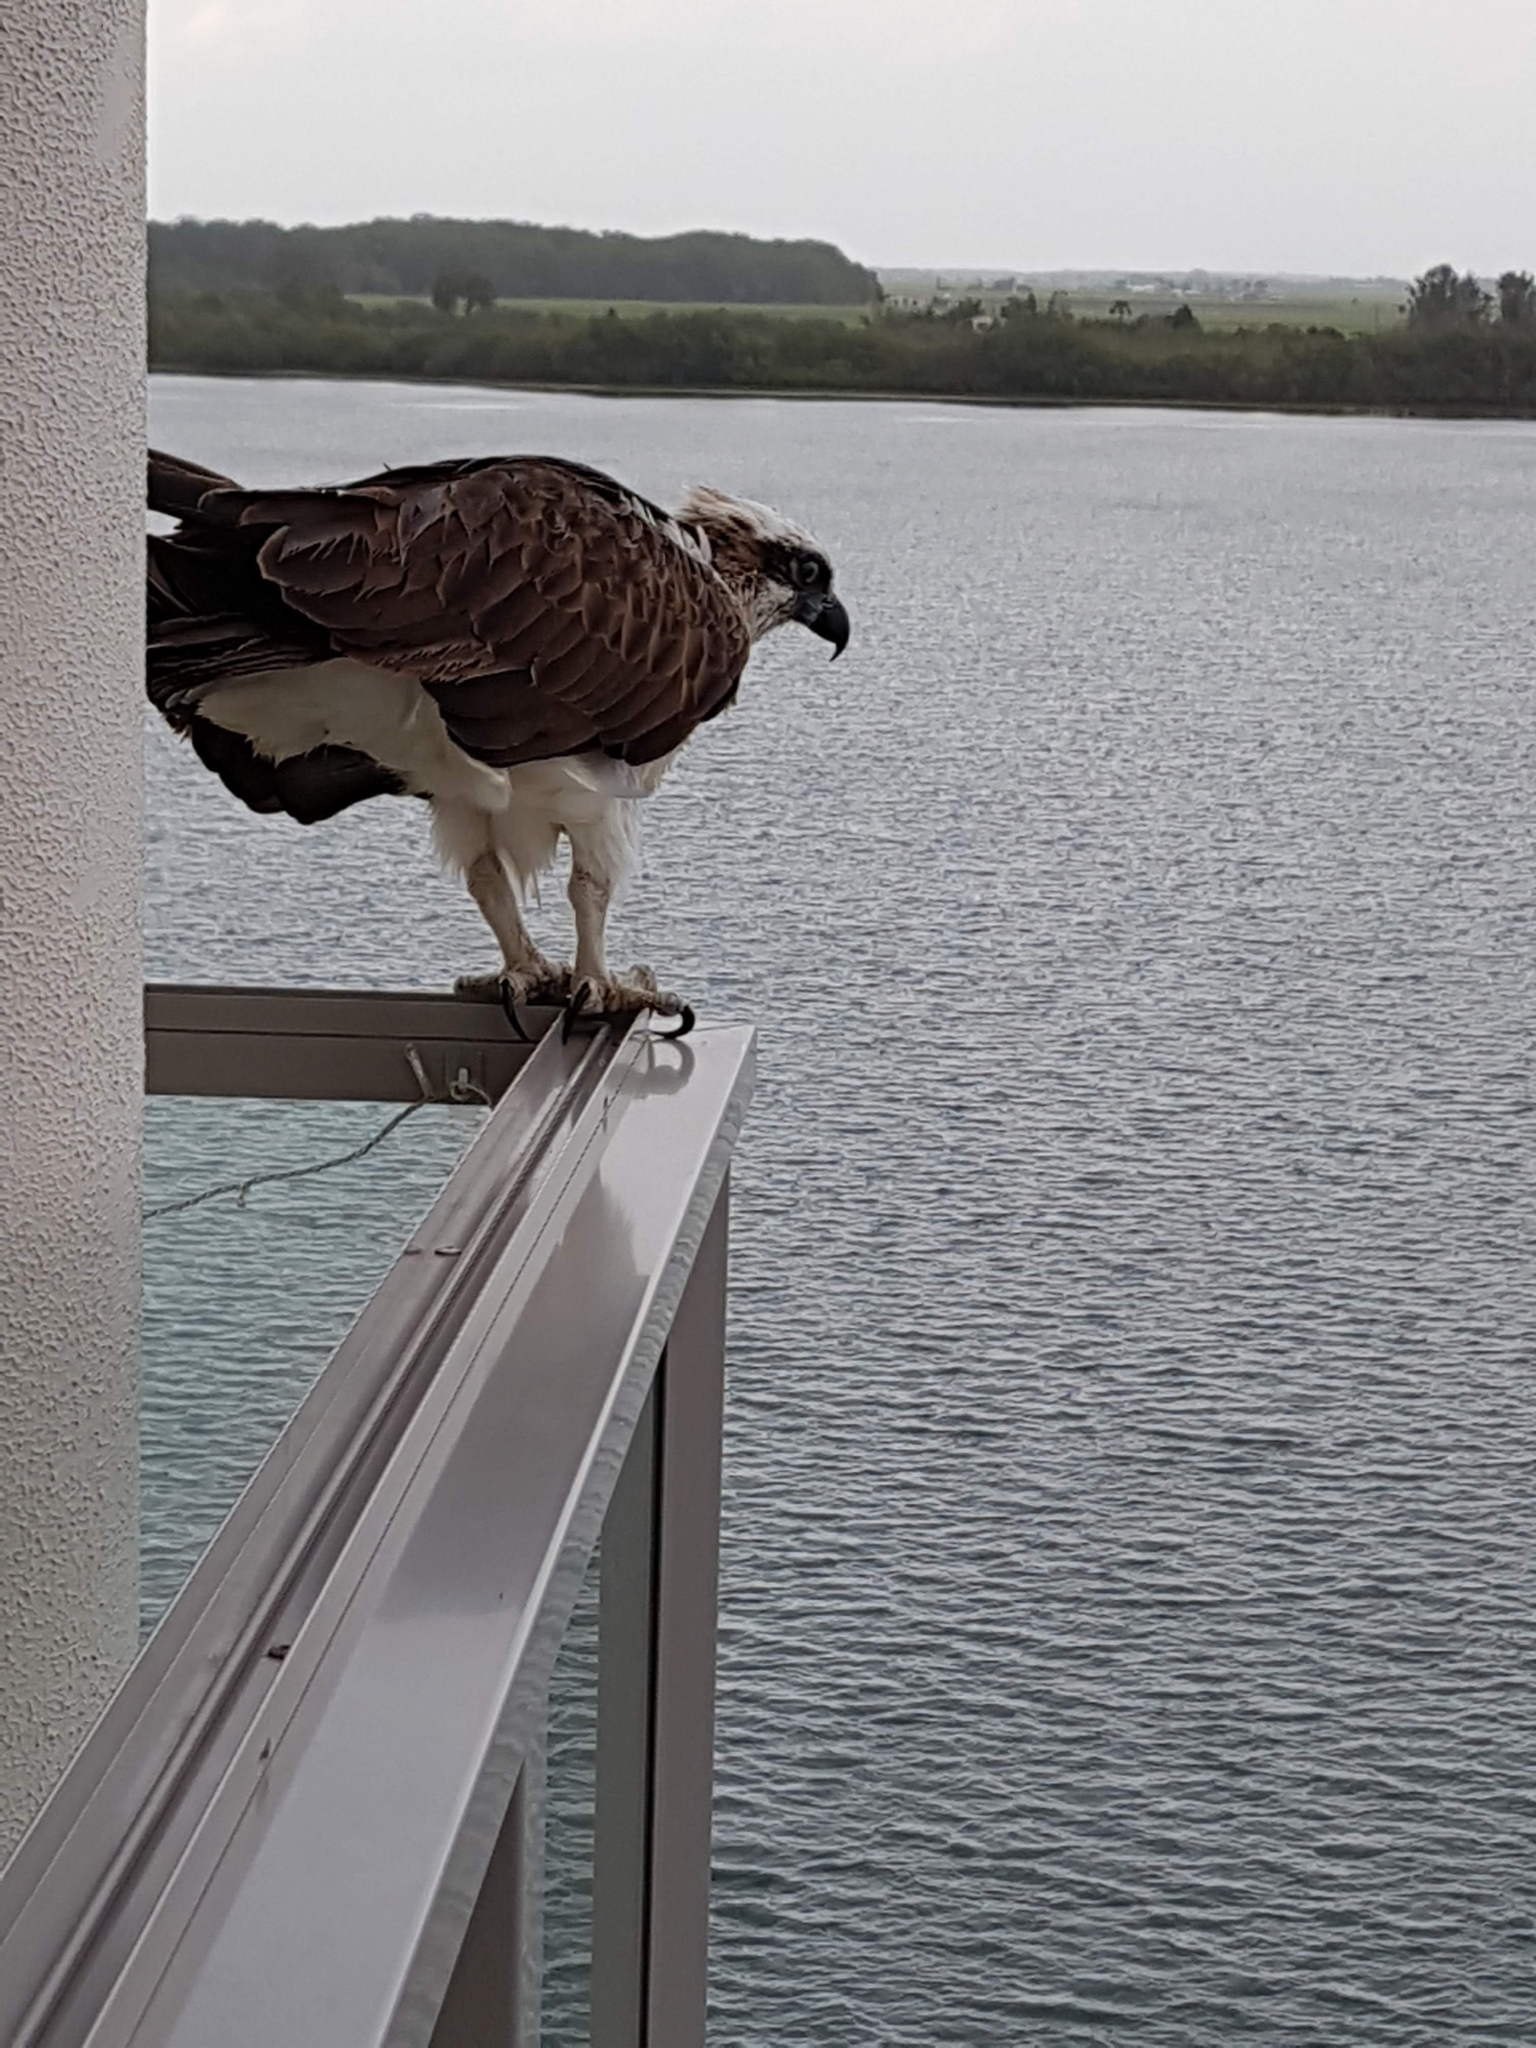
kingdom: Animalia
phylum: Chordata
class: Aves
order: Accipitriformes
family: Pandionidae
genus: Pandion
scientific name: Pandion haliaetus
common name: Osprey
